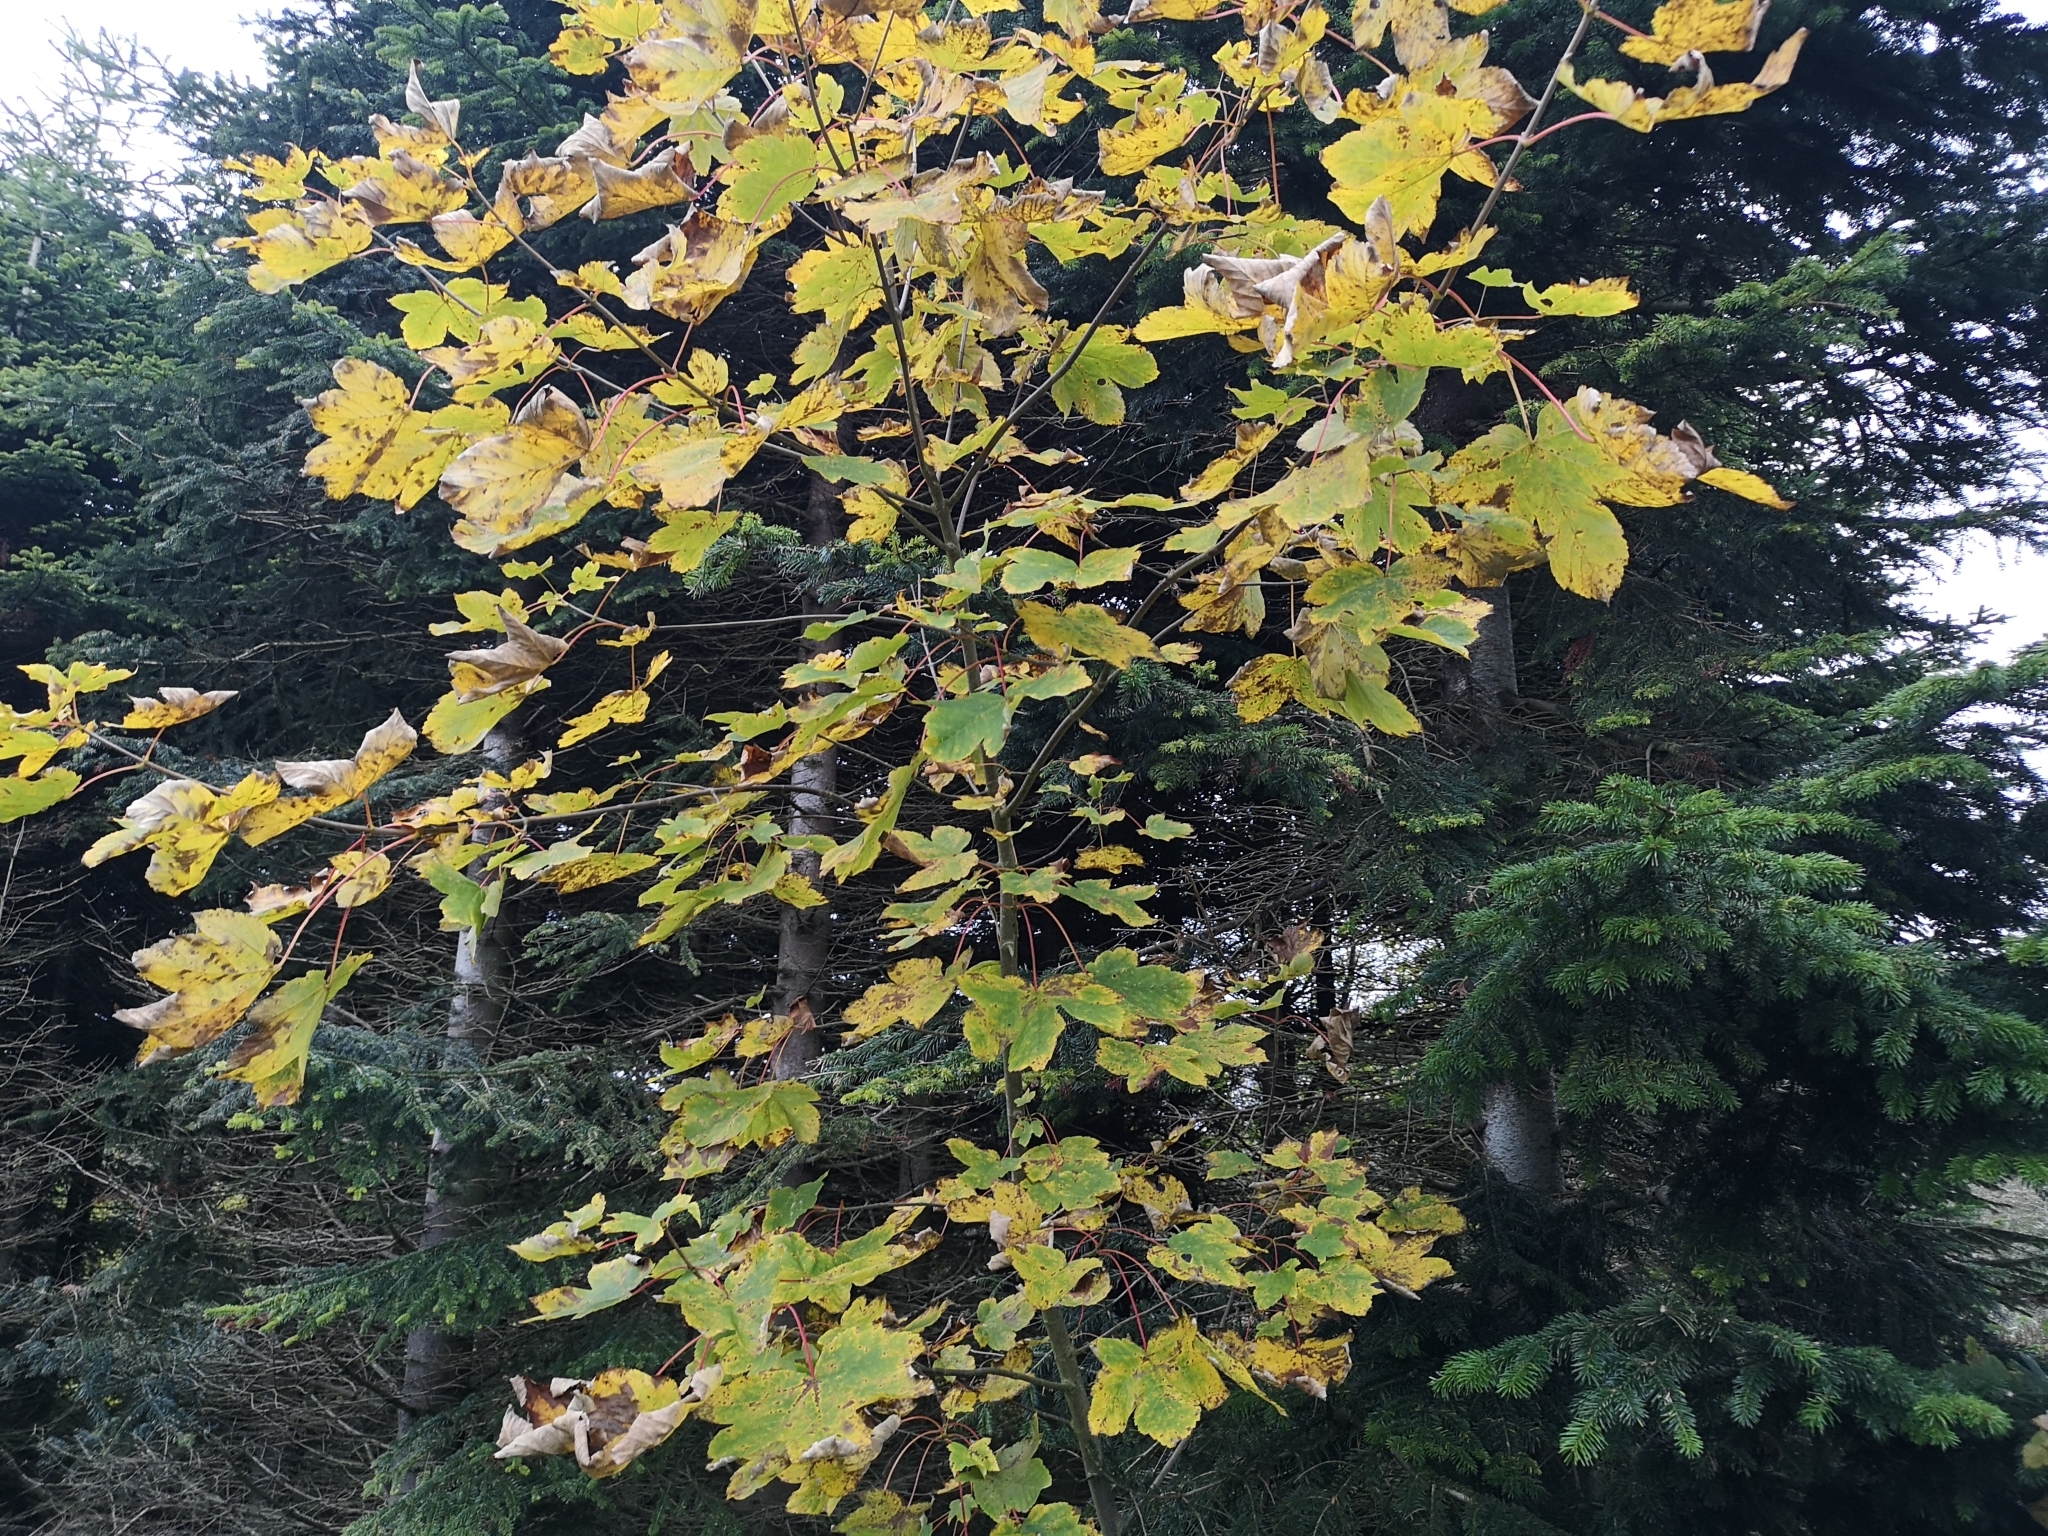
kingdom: Plantae
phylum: Tracheophyta
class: Magnoliopsida
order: Sapindales
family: Sapindaceae
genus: Acer
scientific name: Acer pseudoplatanus
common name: Sycamore
